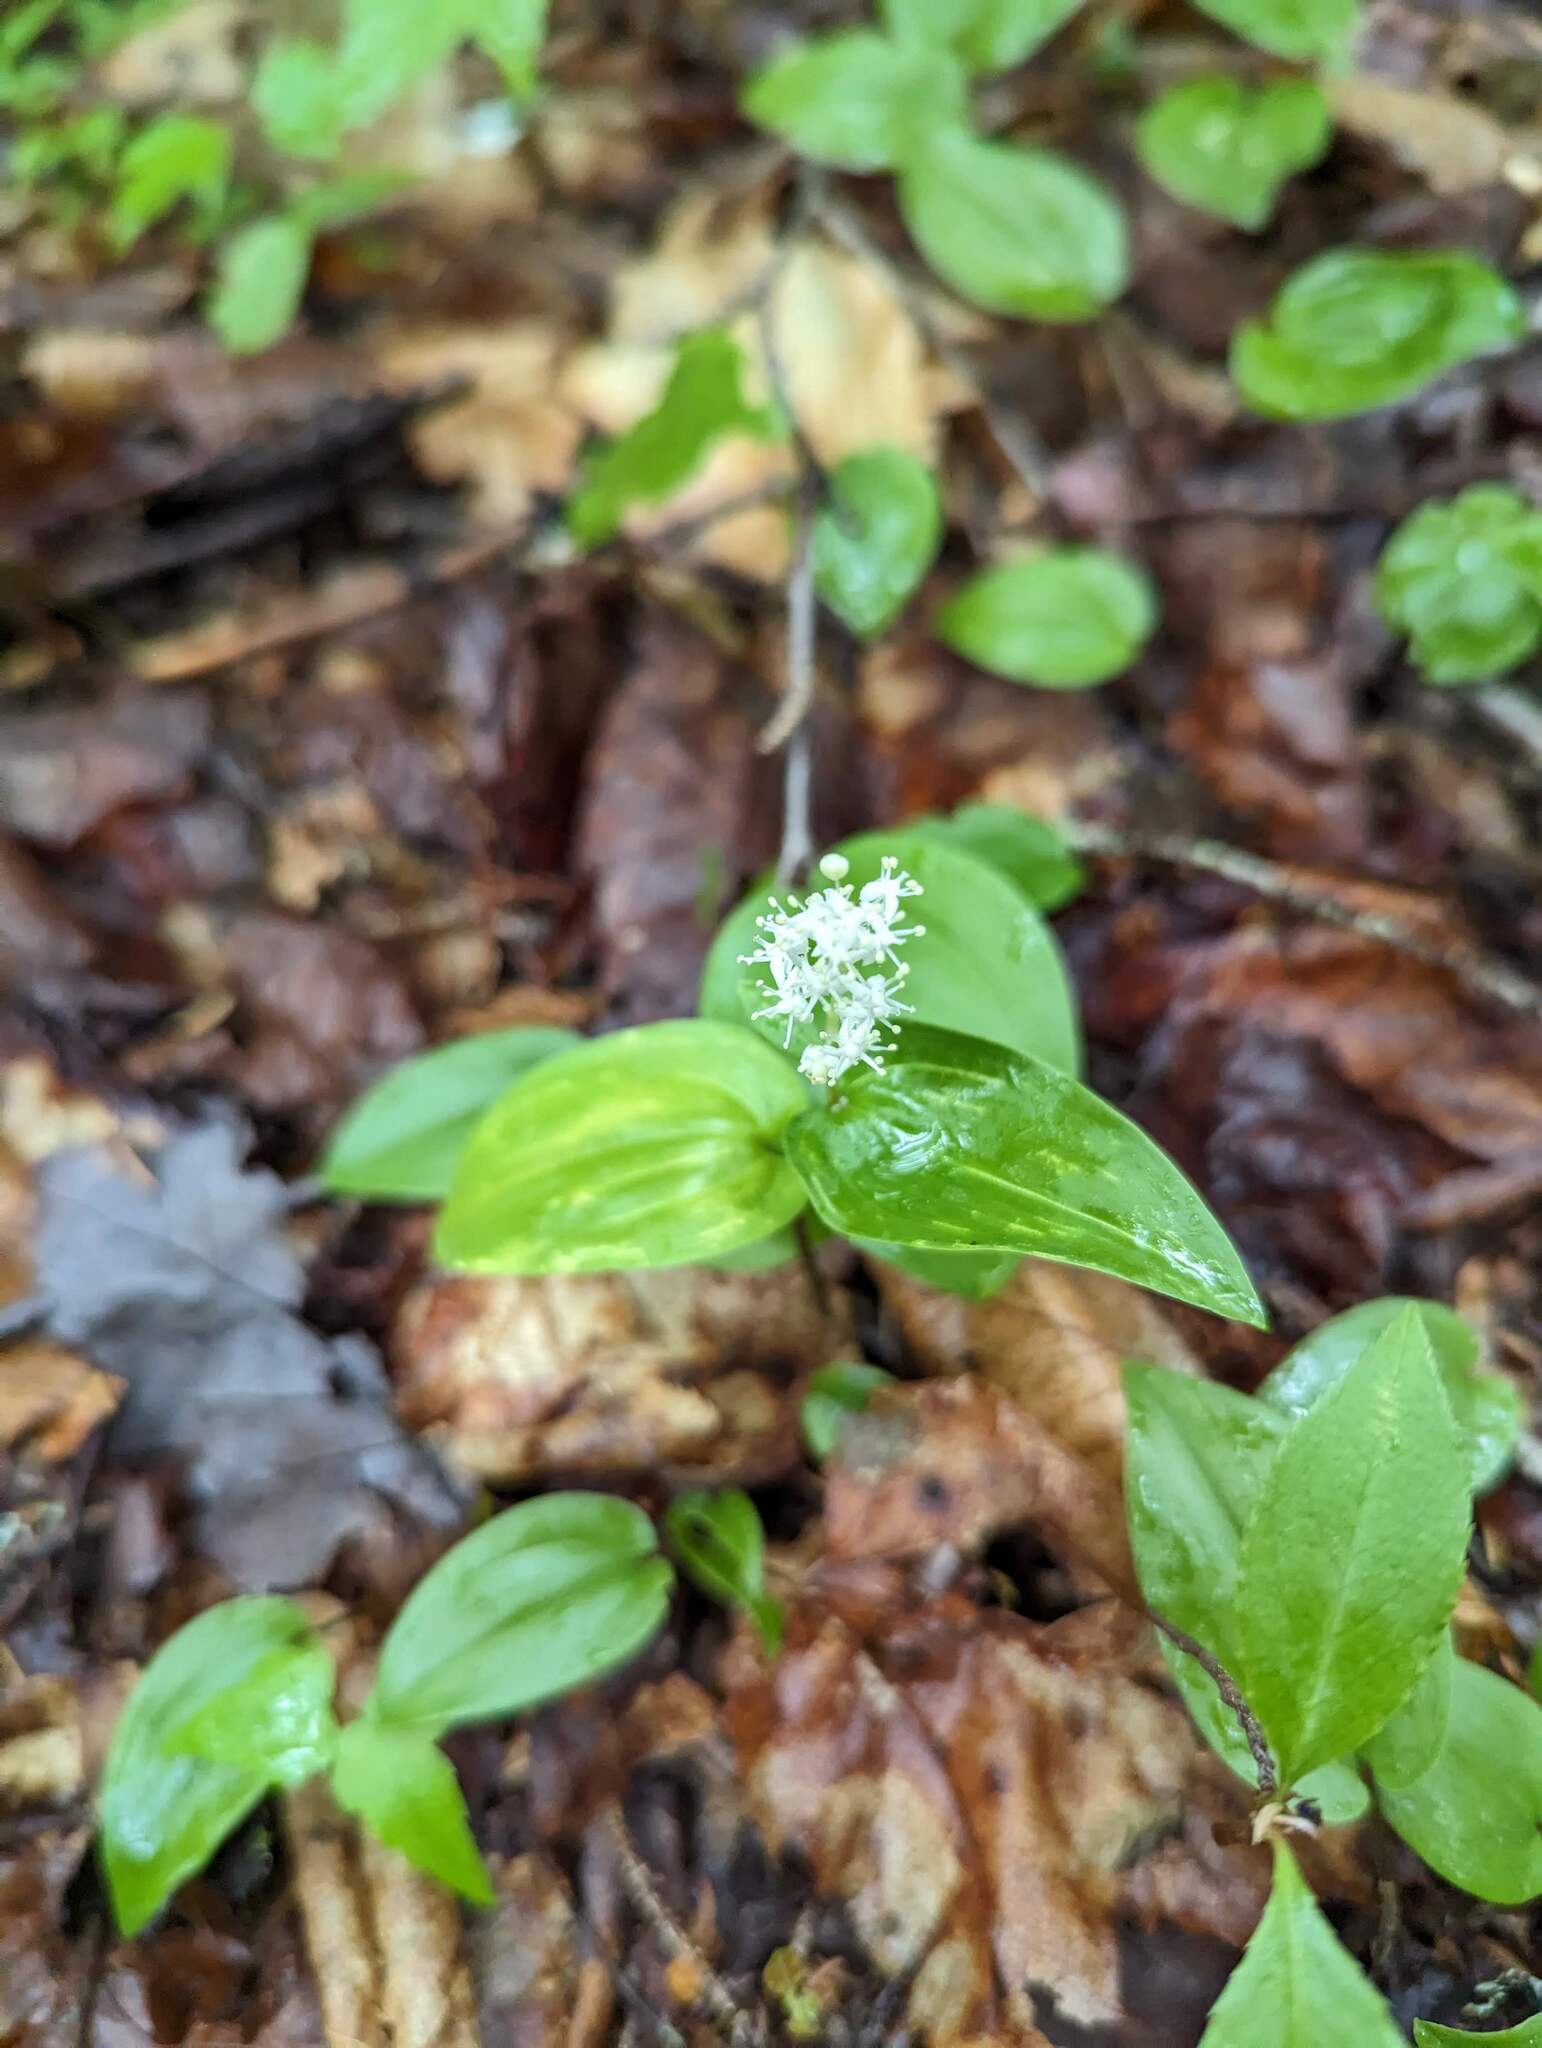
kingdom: Plantae
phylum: Tracheophyta
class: Liliopsida
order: Asparagales
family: Asparagaceae
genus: Maianthemum
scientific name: Maianthemum canadense
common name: False lily-of-the-valley
